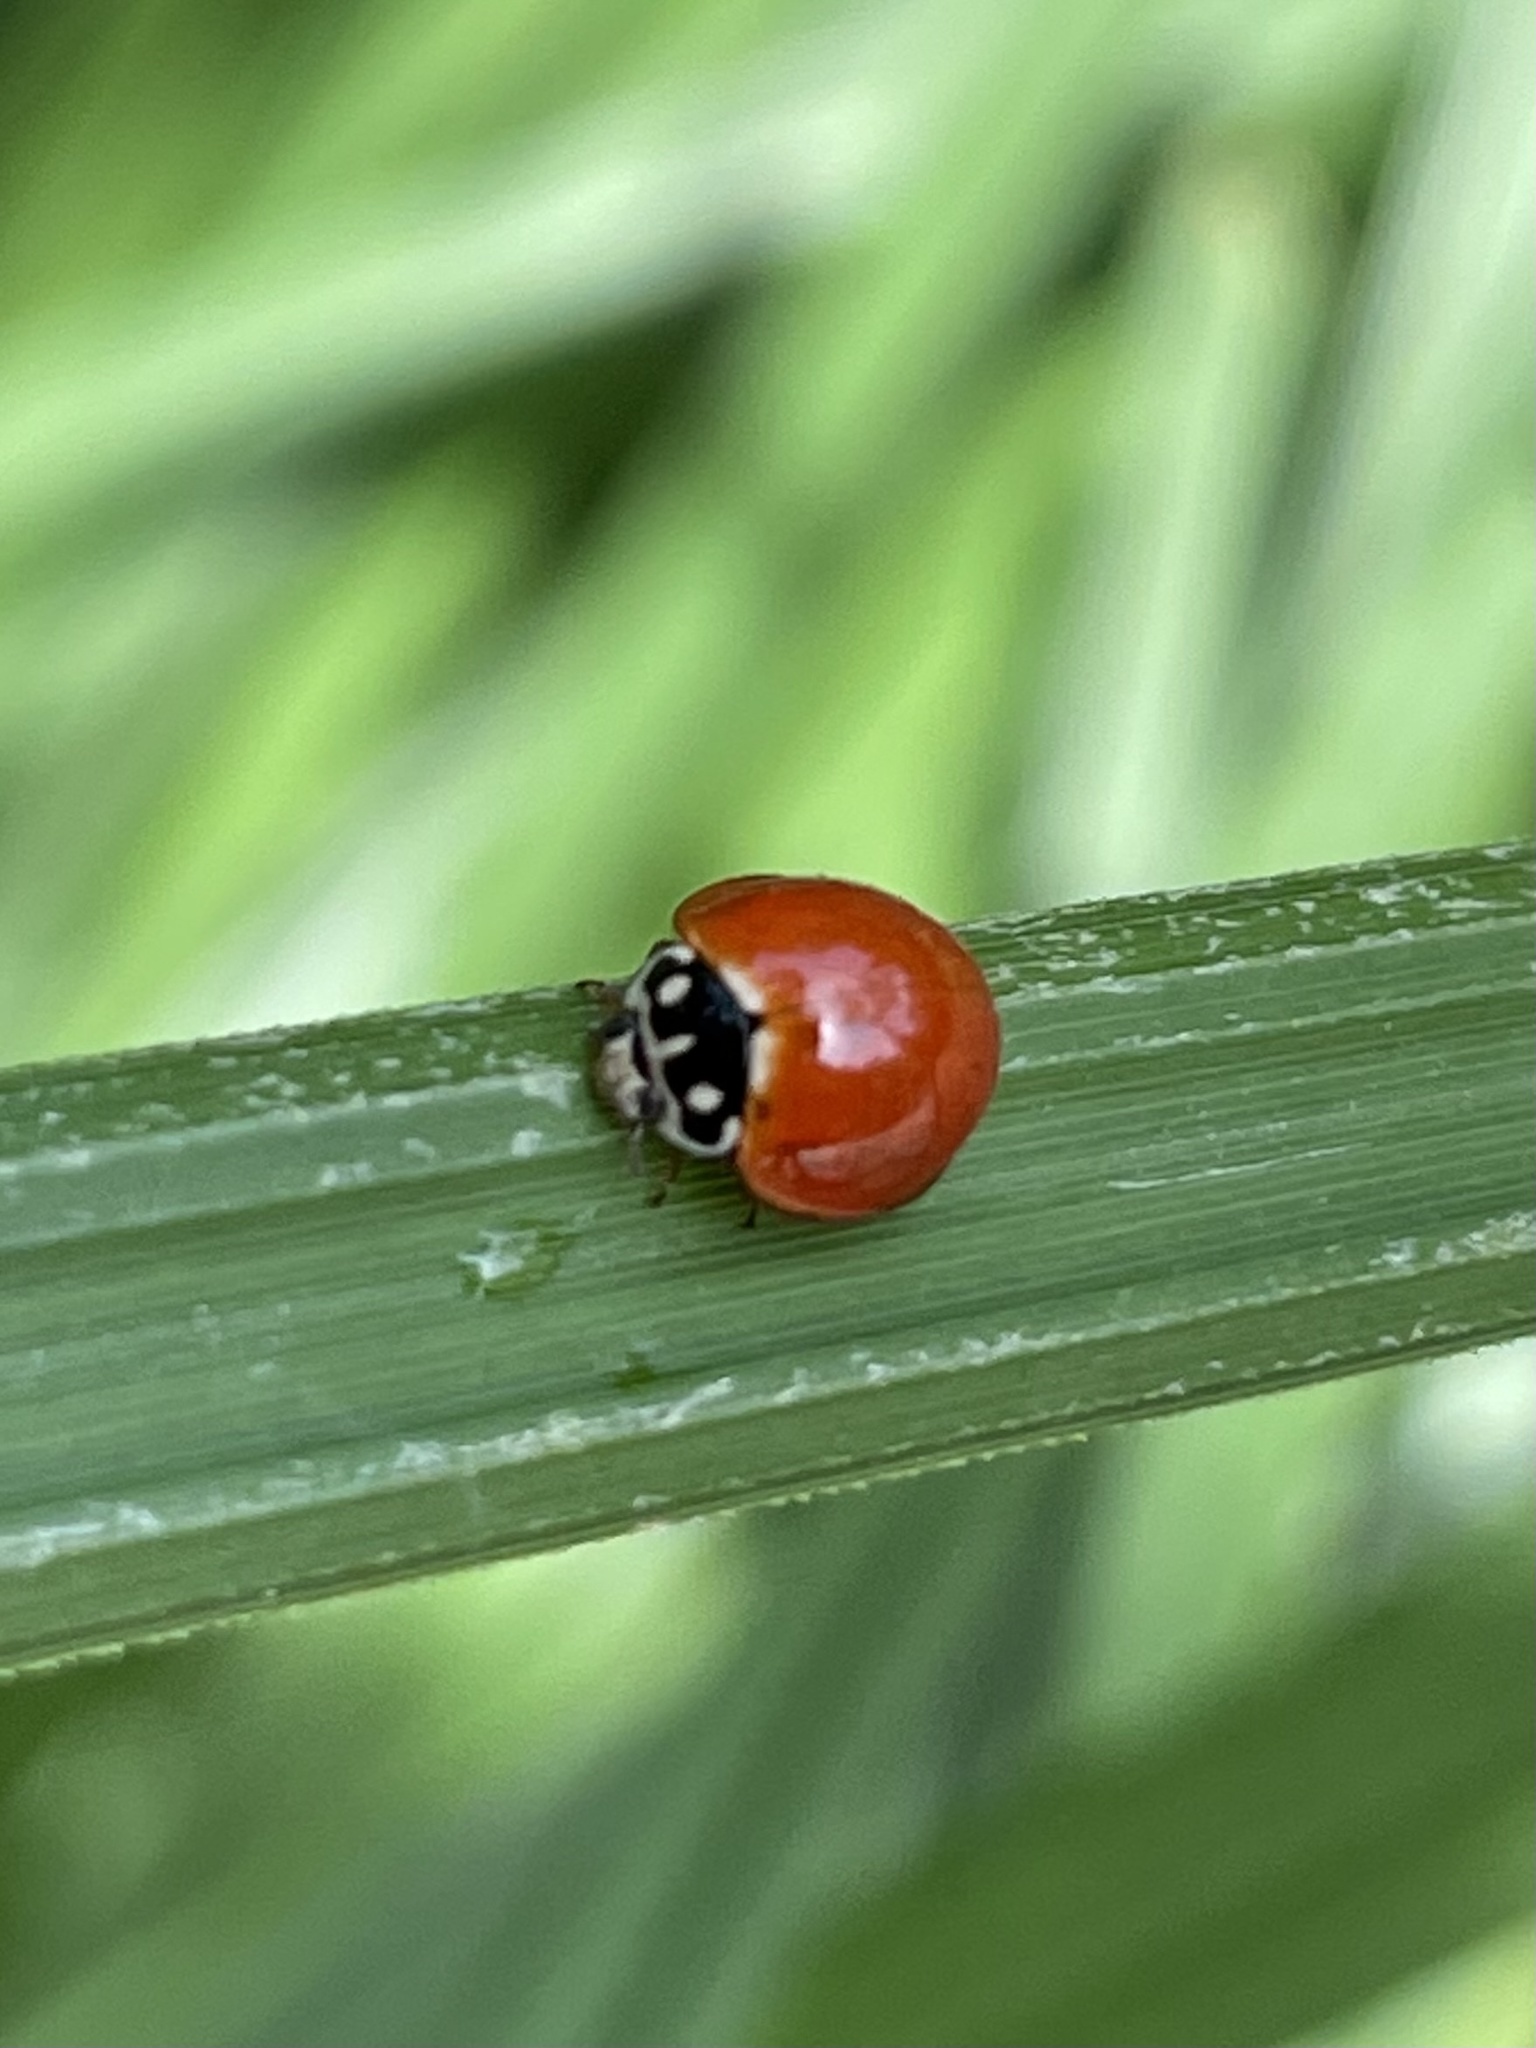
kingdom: Animalia
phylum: Arthropoda
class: Insecta
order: Coleoptera
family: Coccinellidae
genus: Cycloneda
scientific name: Cycloneda sanguinea
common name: Ladybird beetle
